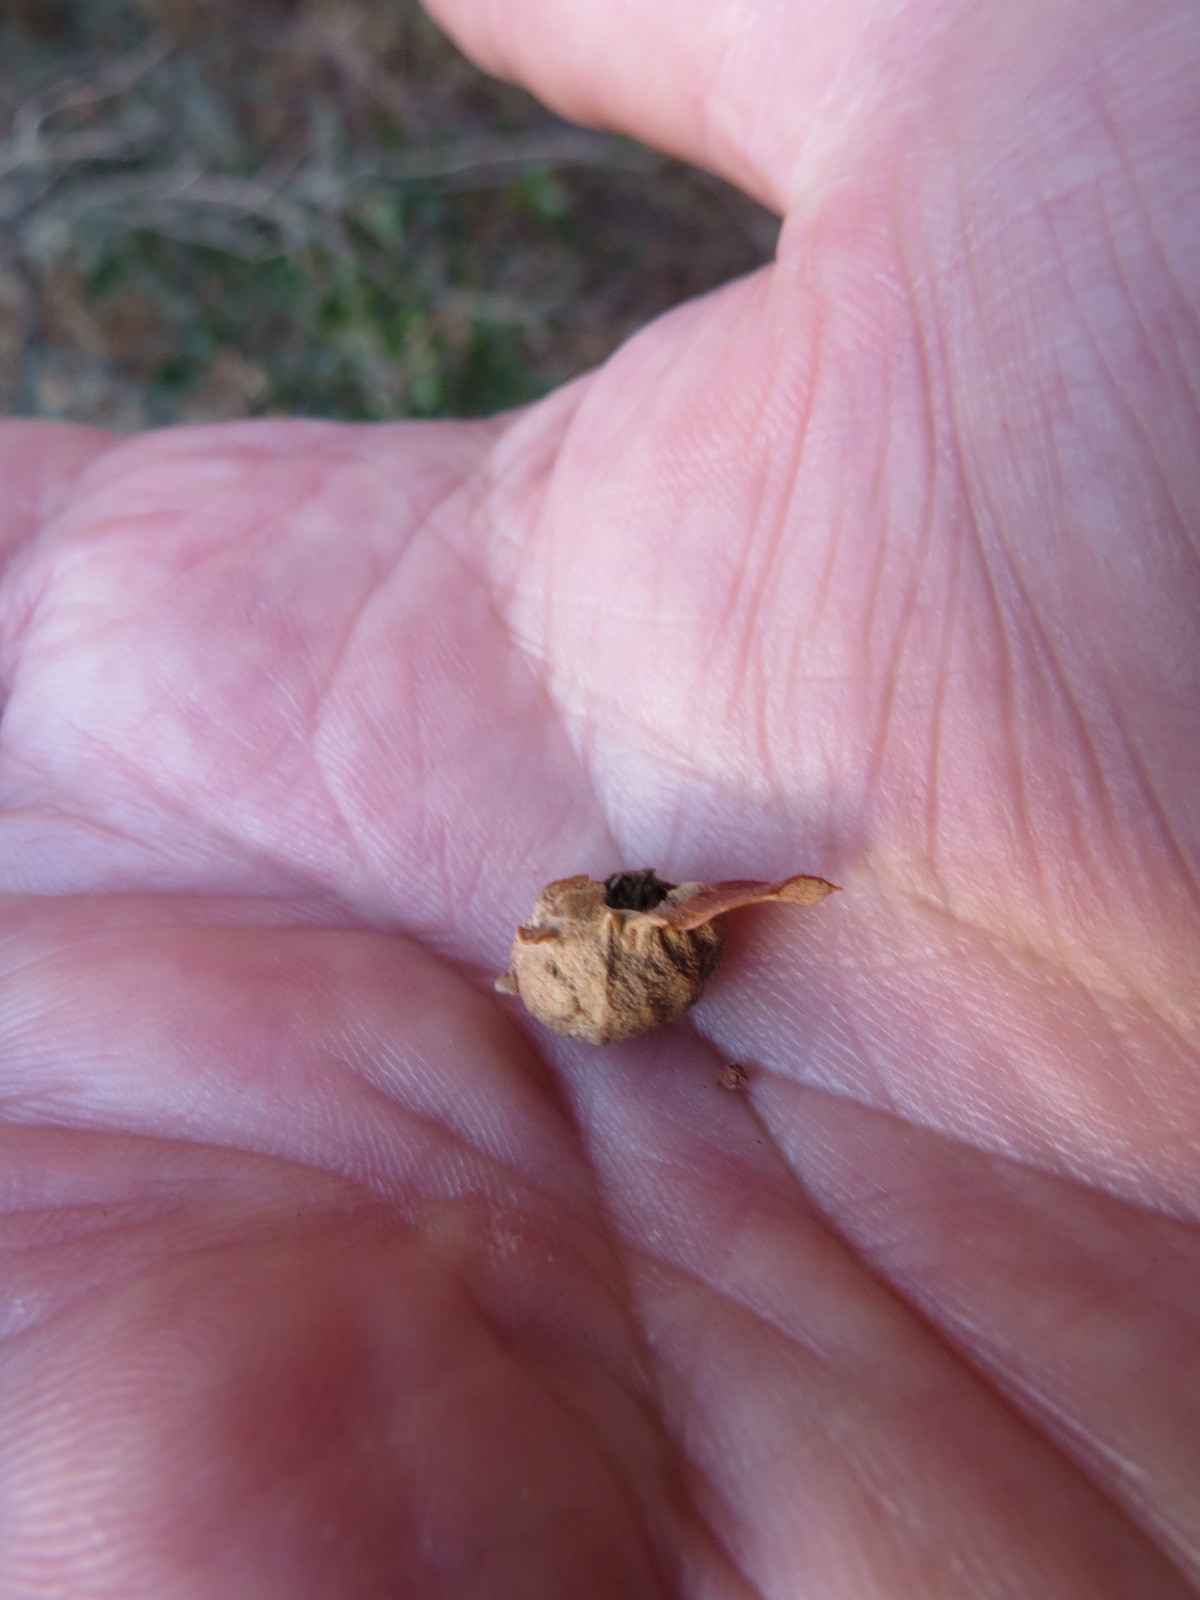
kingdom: Animalia
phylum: Arthropoda
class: Insecta
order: Hymenoptera
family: Cynipidae
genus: Neuroterus
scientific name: Neuroterus
